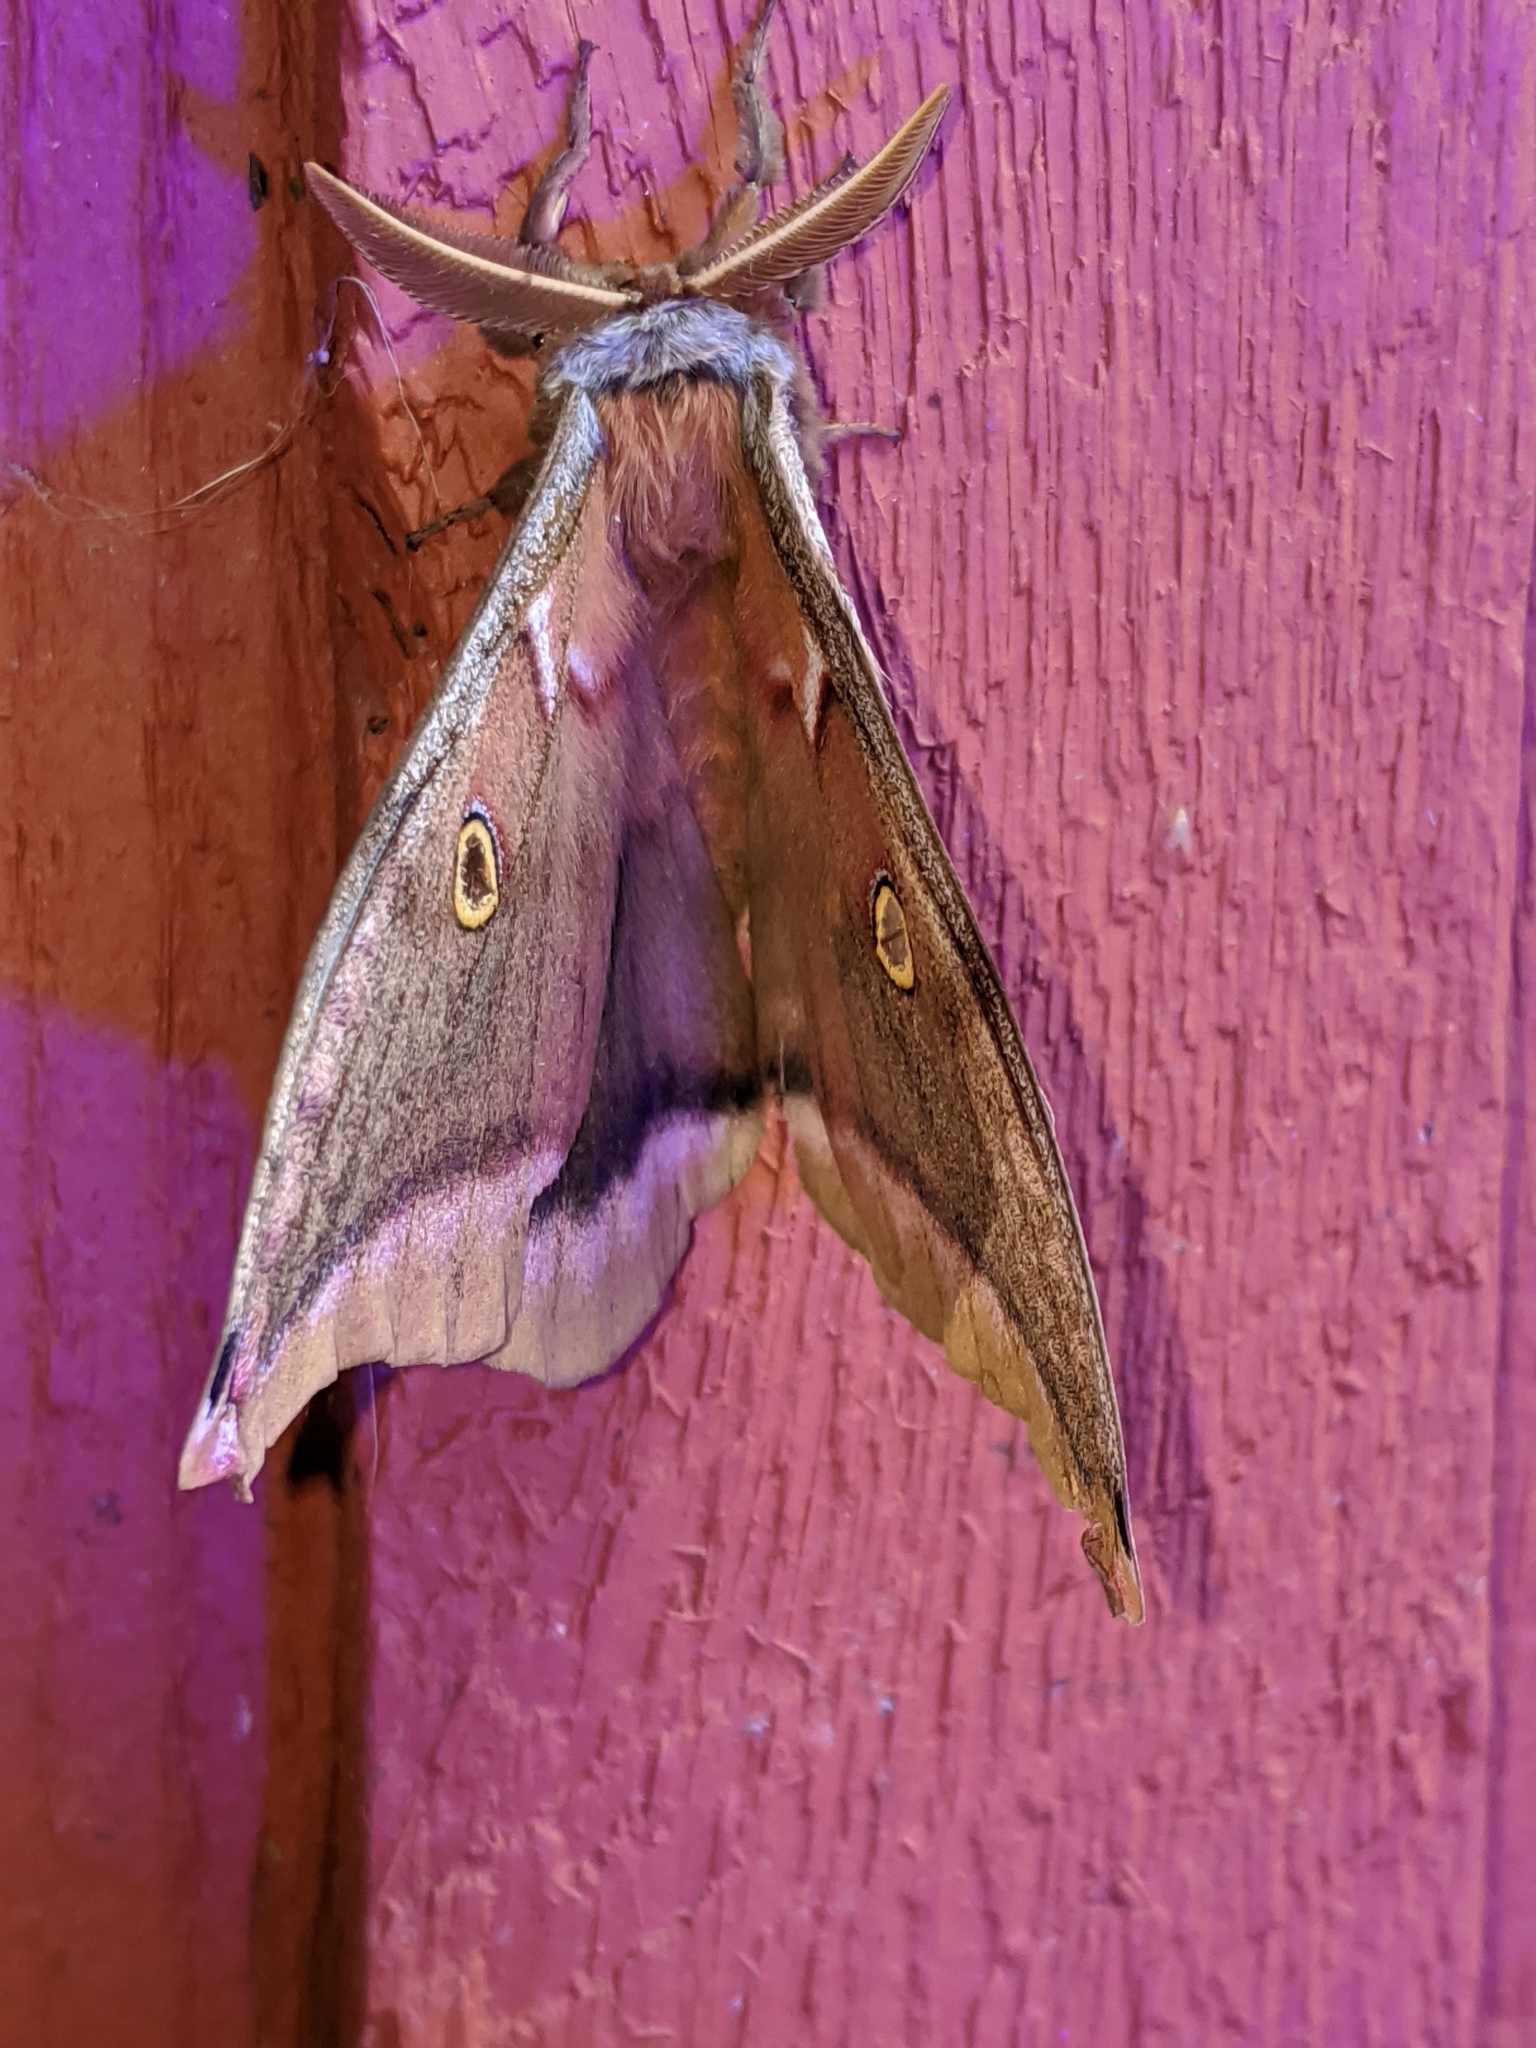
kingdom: Animalia
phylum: Arthropoda
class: Insecta
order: Lepidoptera
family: Saturniidae
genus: Antheraea
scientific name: Antheraea polyphemus
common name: Polyphemus moth
